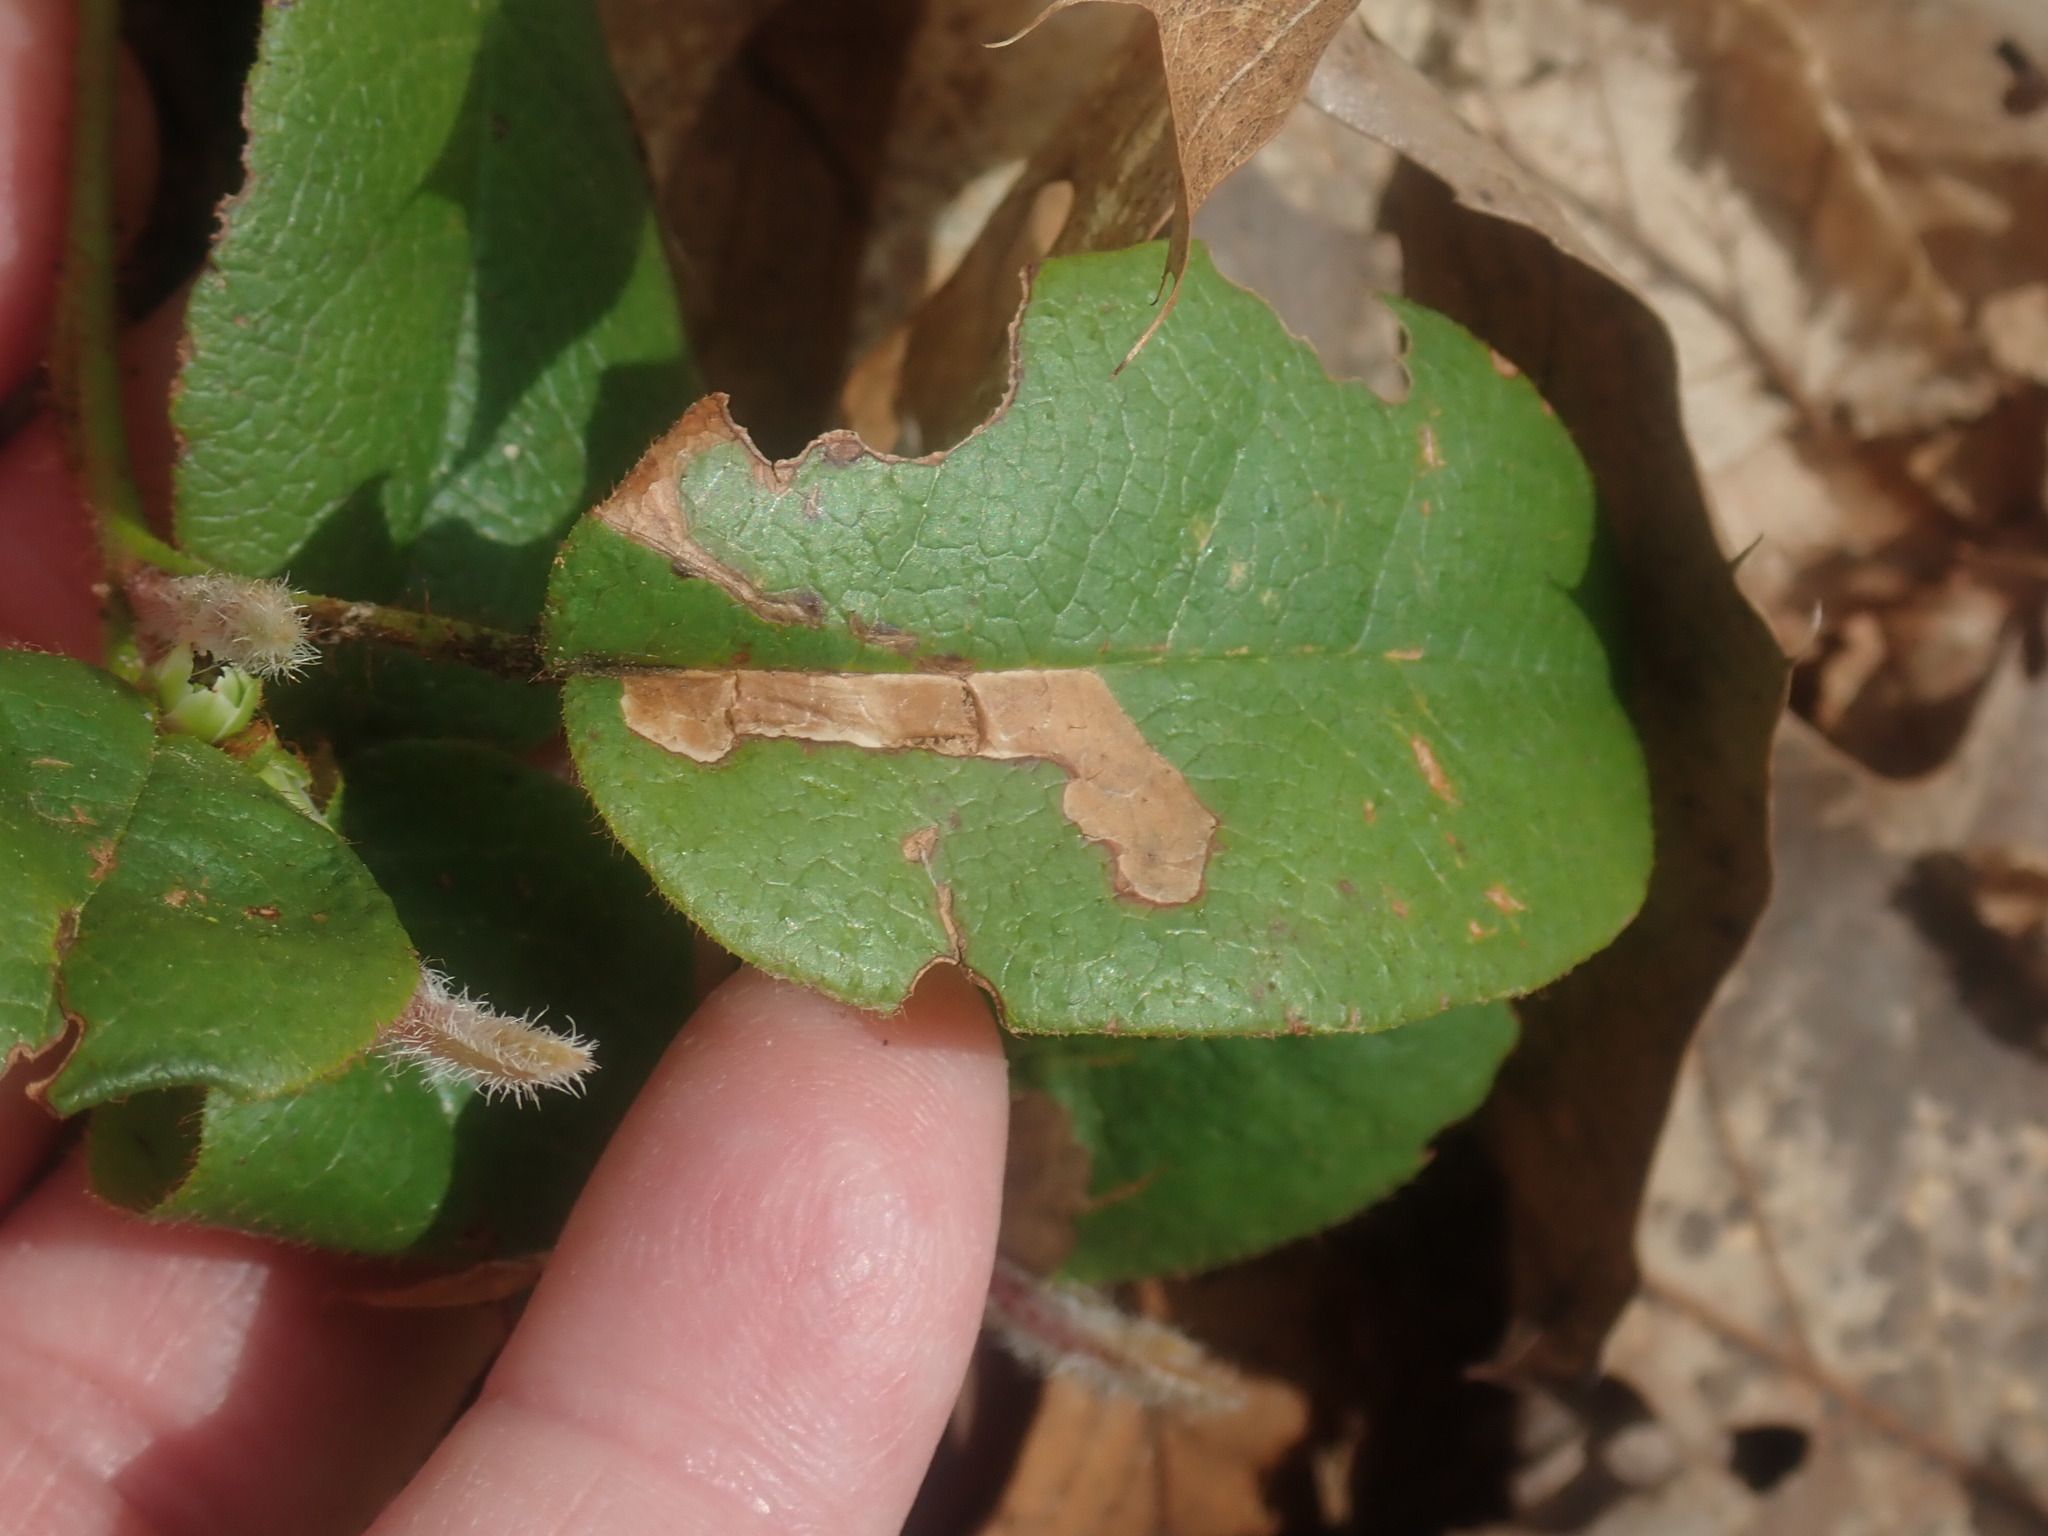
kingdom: Animalia
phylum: Arthropoda
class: Insecta
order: Coleoptera
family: Buprestidae
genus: Brachys
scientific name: Brachys
